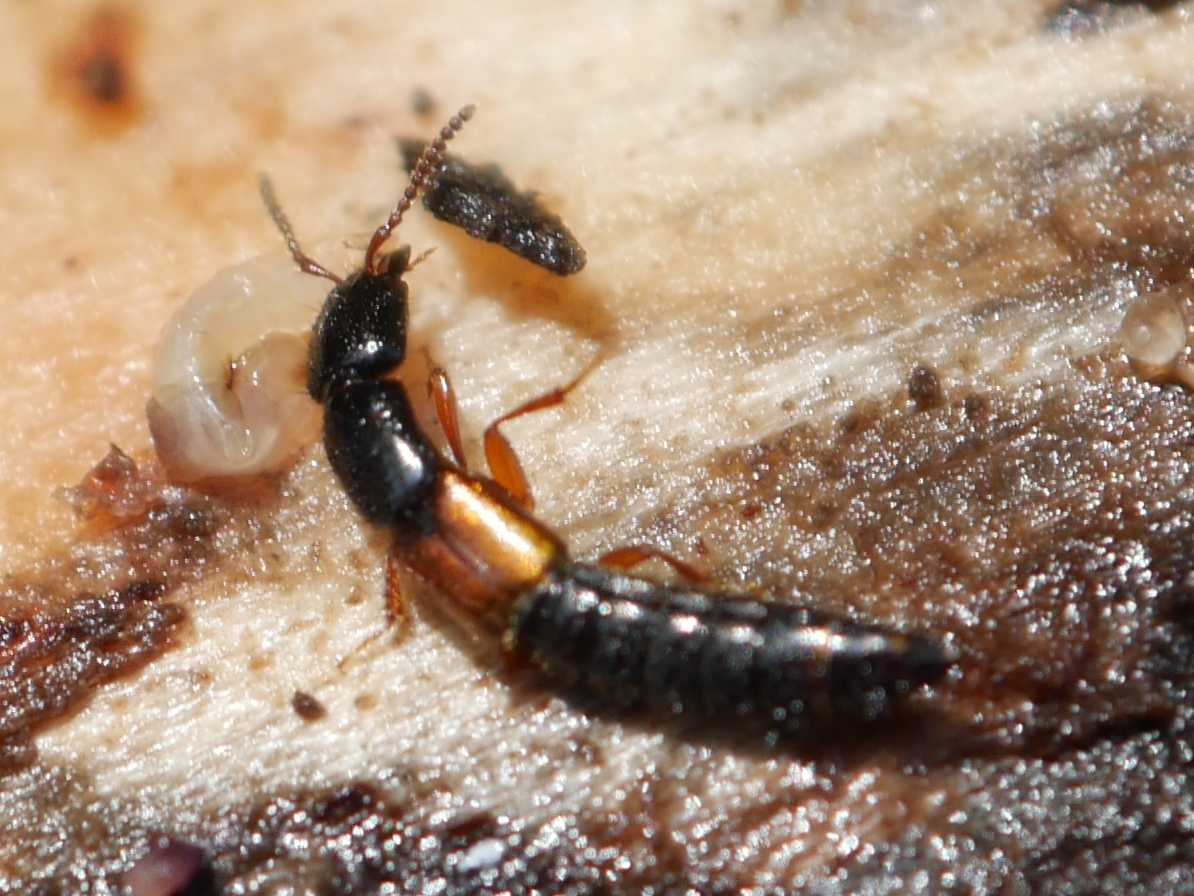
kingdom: Animalia
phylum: Arthropoda
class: Insecta
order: Coleoptera
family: Staphylinidae
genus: Nudobius
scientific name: Nudobius lentus
